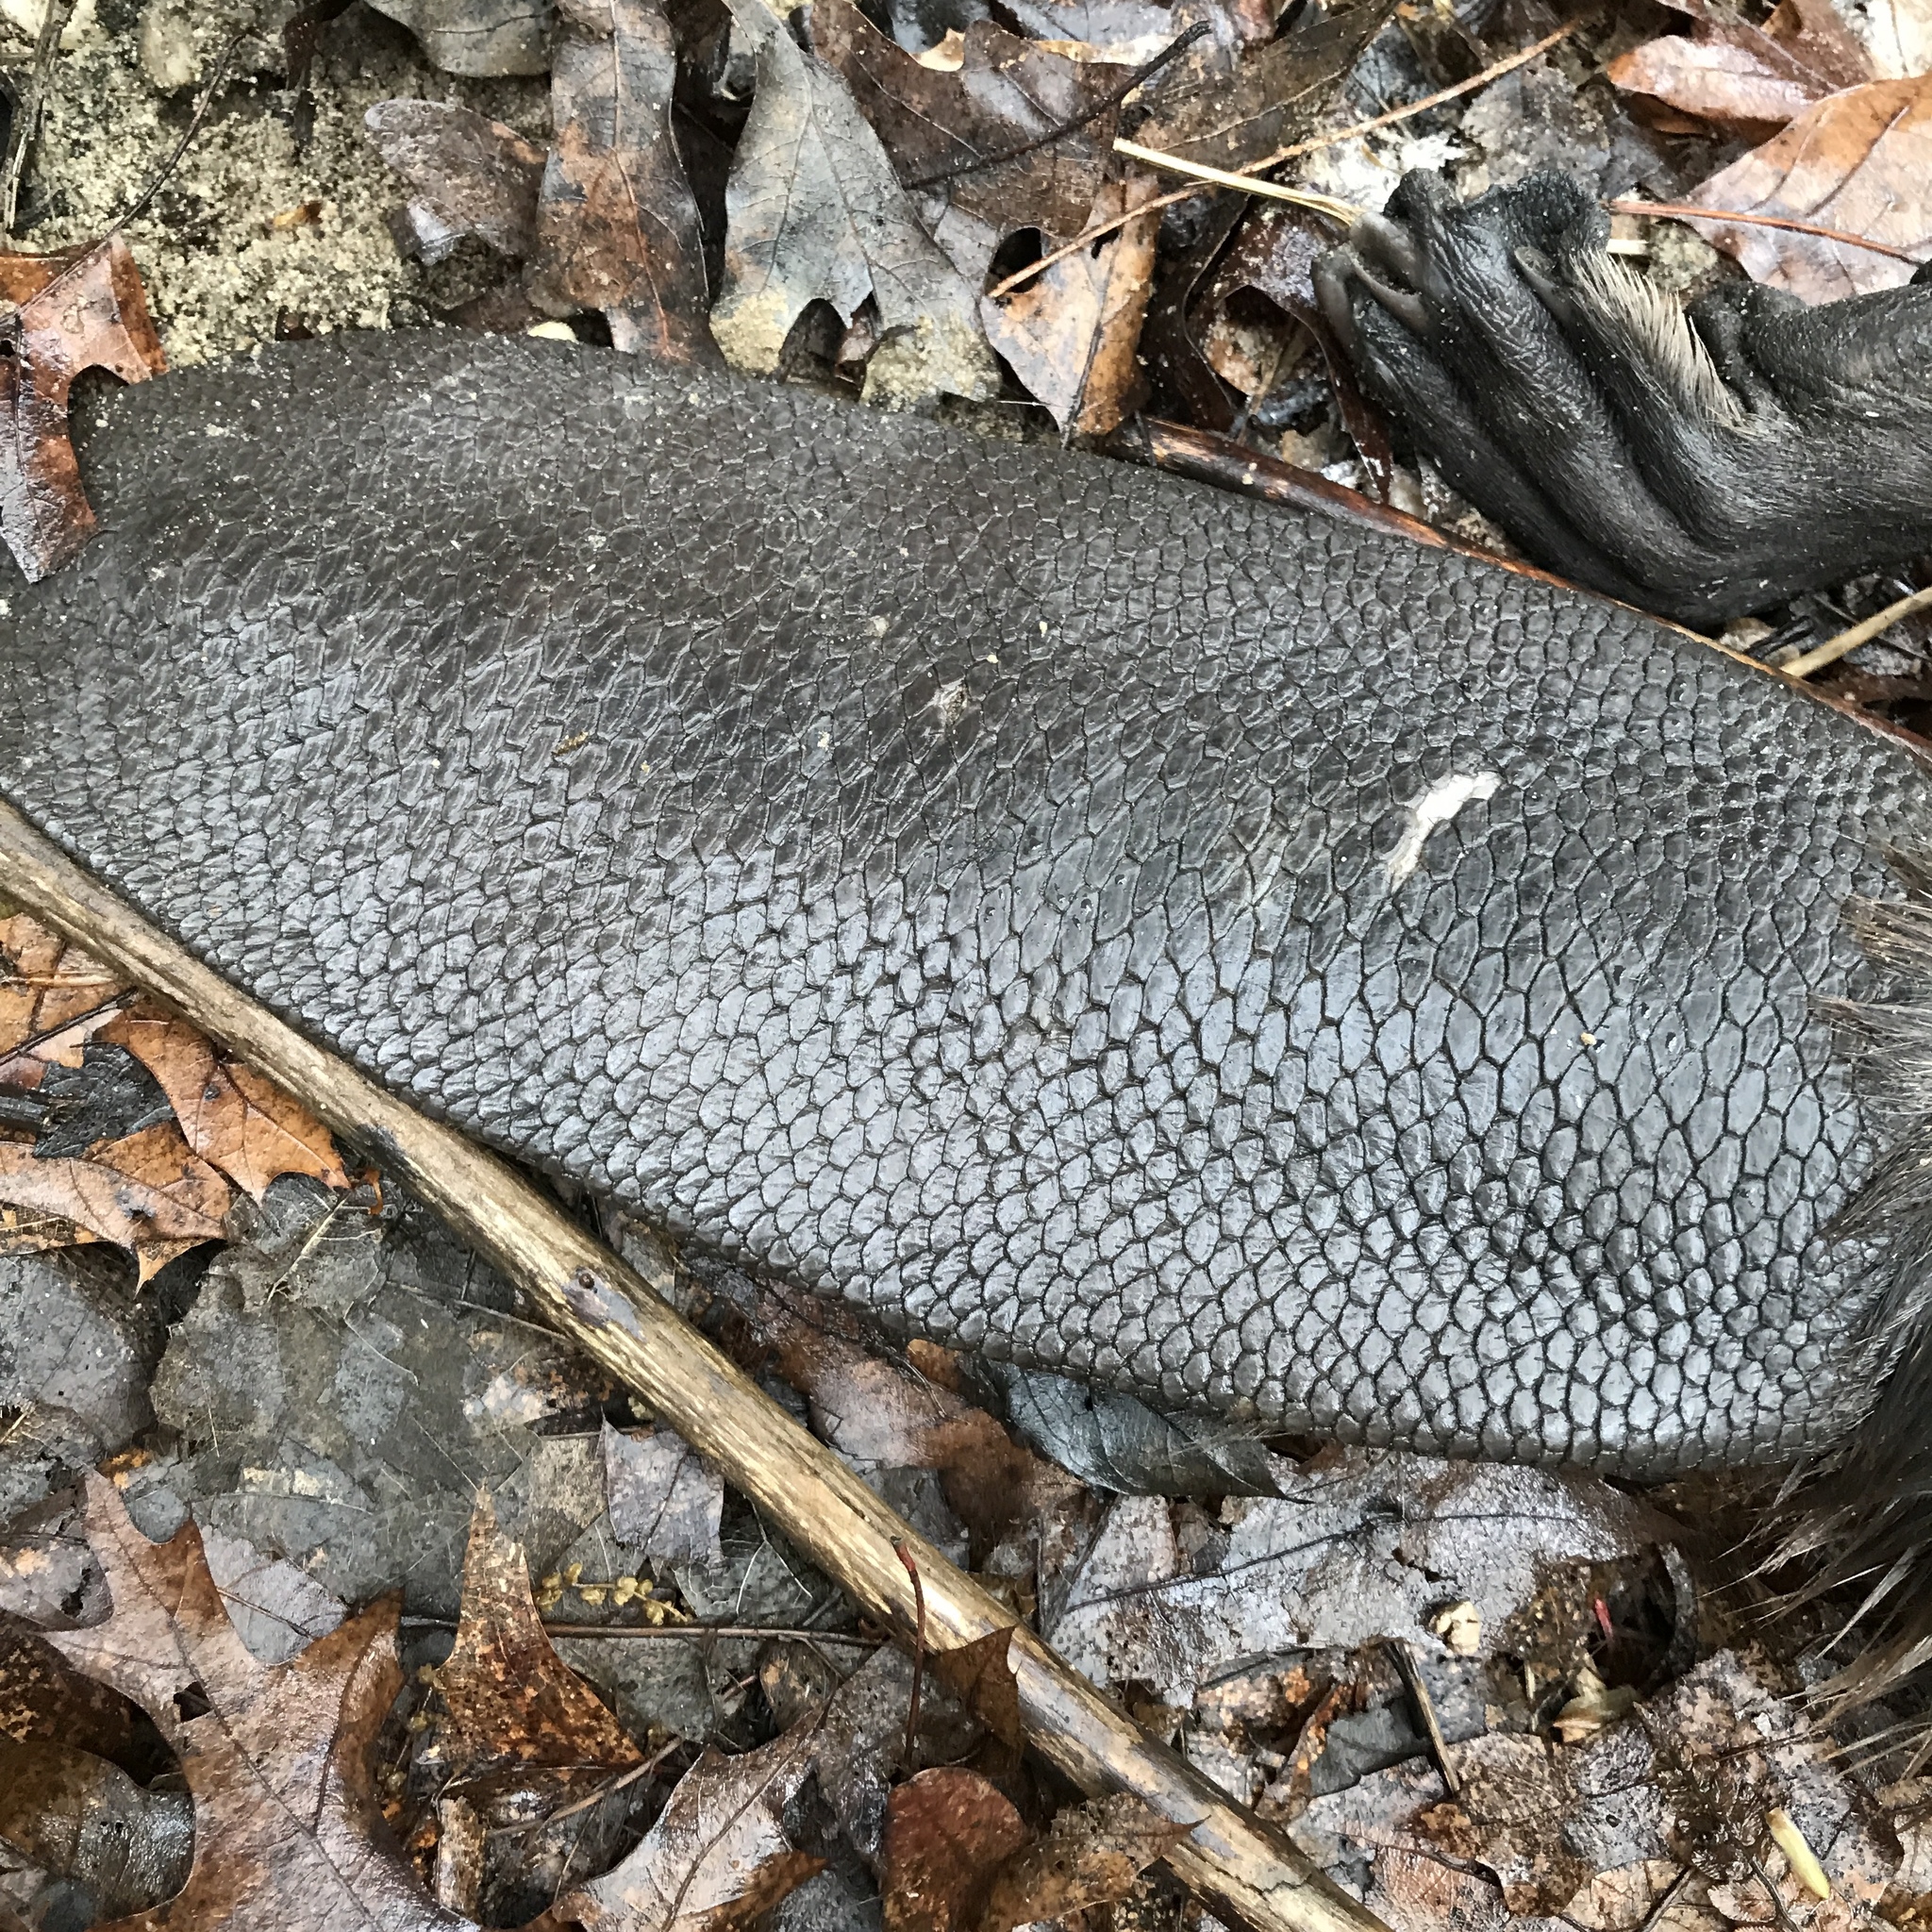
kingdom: Animalia
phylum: Chordata
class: Mammalia
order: Rodentia
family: Castoridae
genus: Castor
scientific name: Castor canadensis
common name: American beaver
